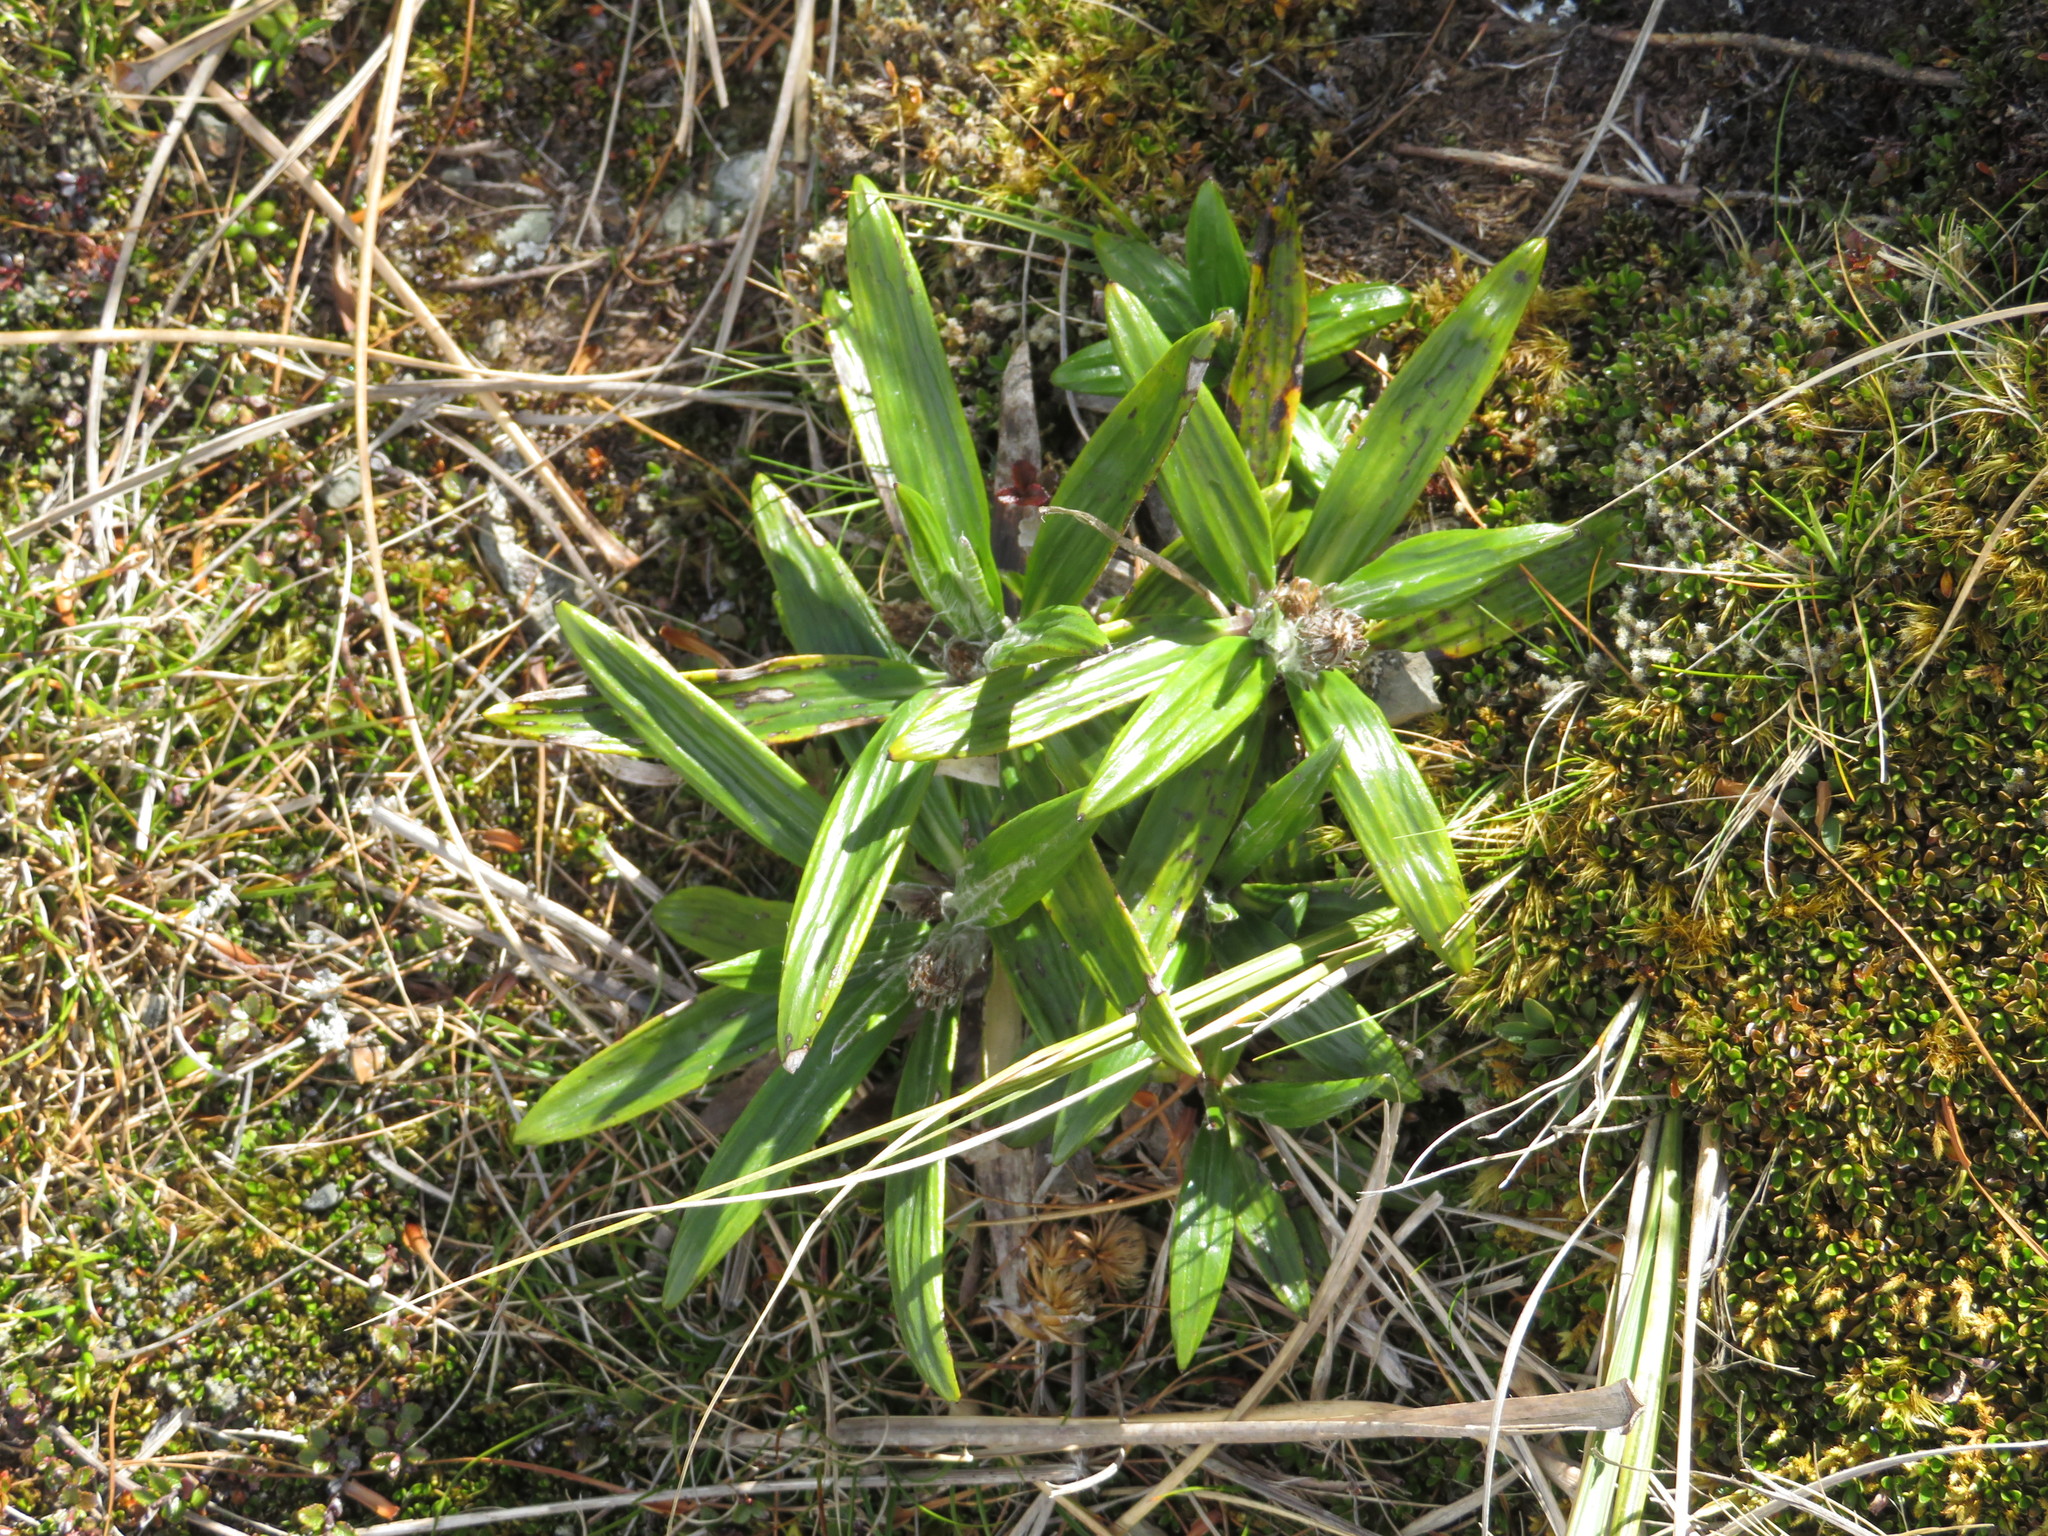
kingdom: Plantae
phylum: Tracheophyta
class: Magnoliopsida
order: Asterales
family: Asteraceae
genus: Celmisia
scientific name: Celmisia spectabilis
